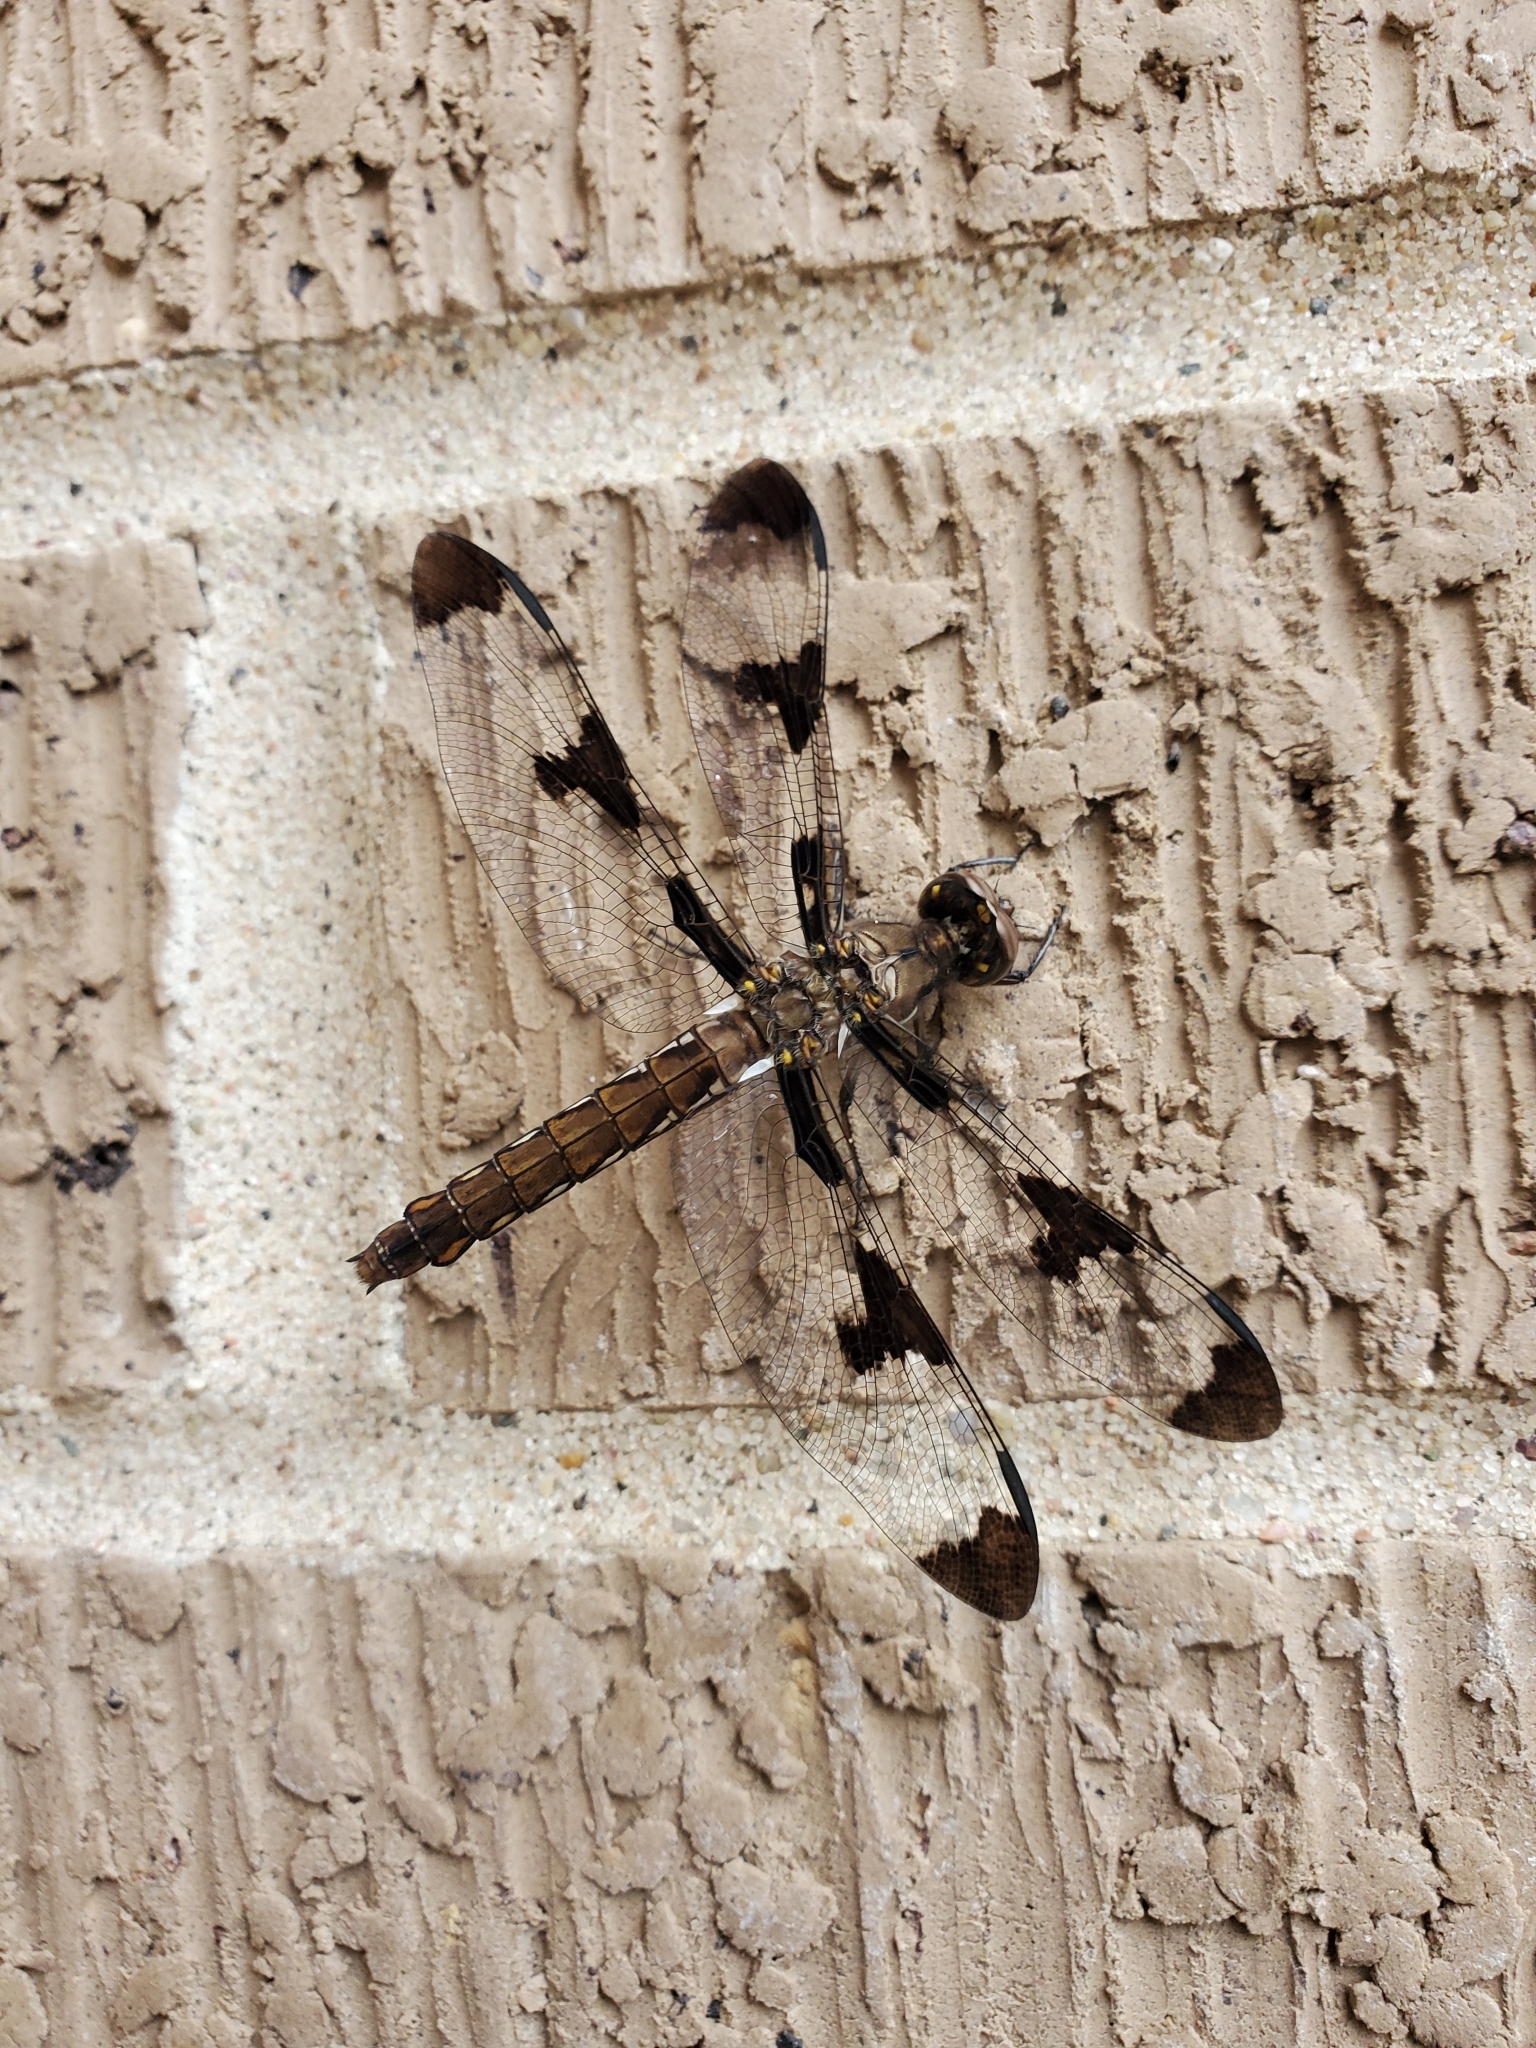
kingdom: Animalia
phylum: Arthropoda
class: Insecta
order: Odonata
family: Libellulidae
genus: Plathemis
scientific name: Plathemis lydia
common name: Common whitetail
